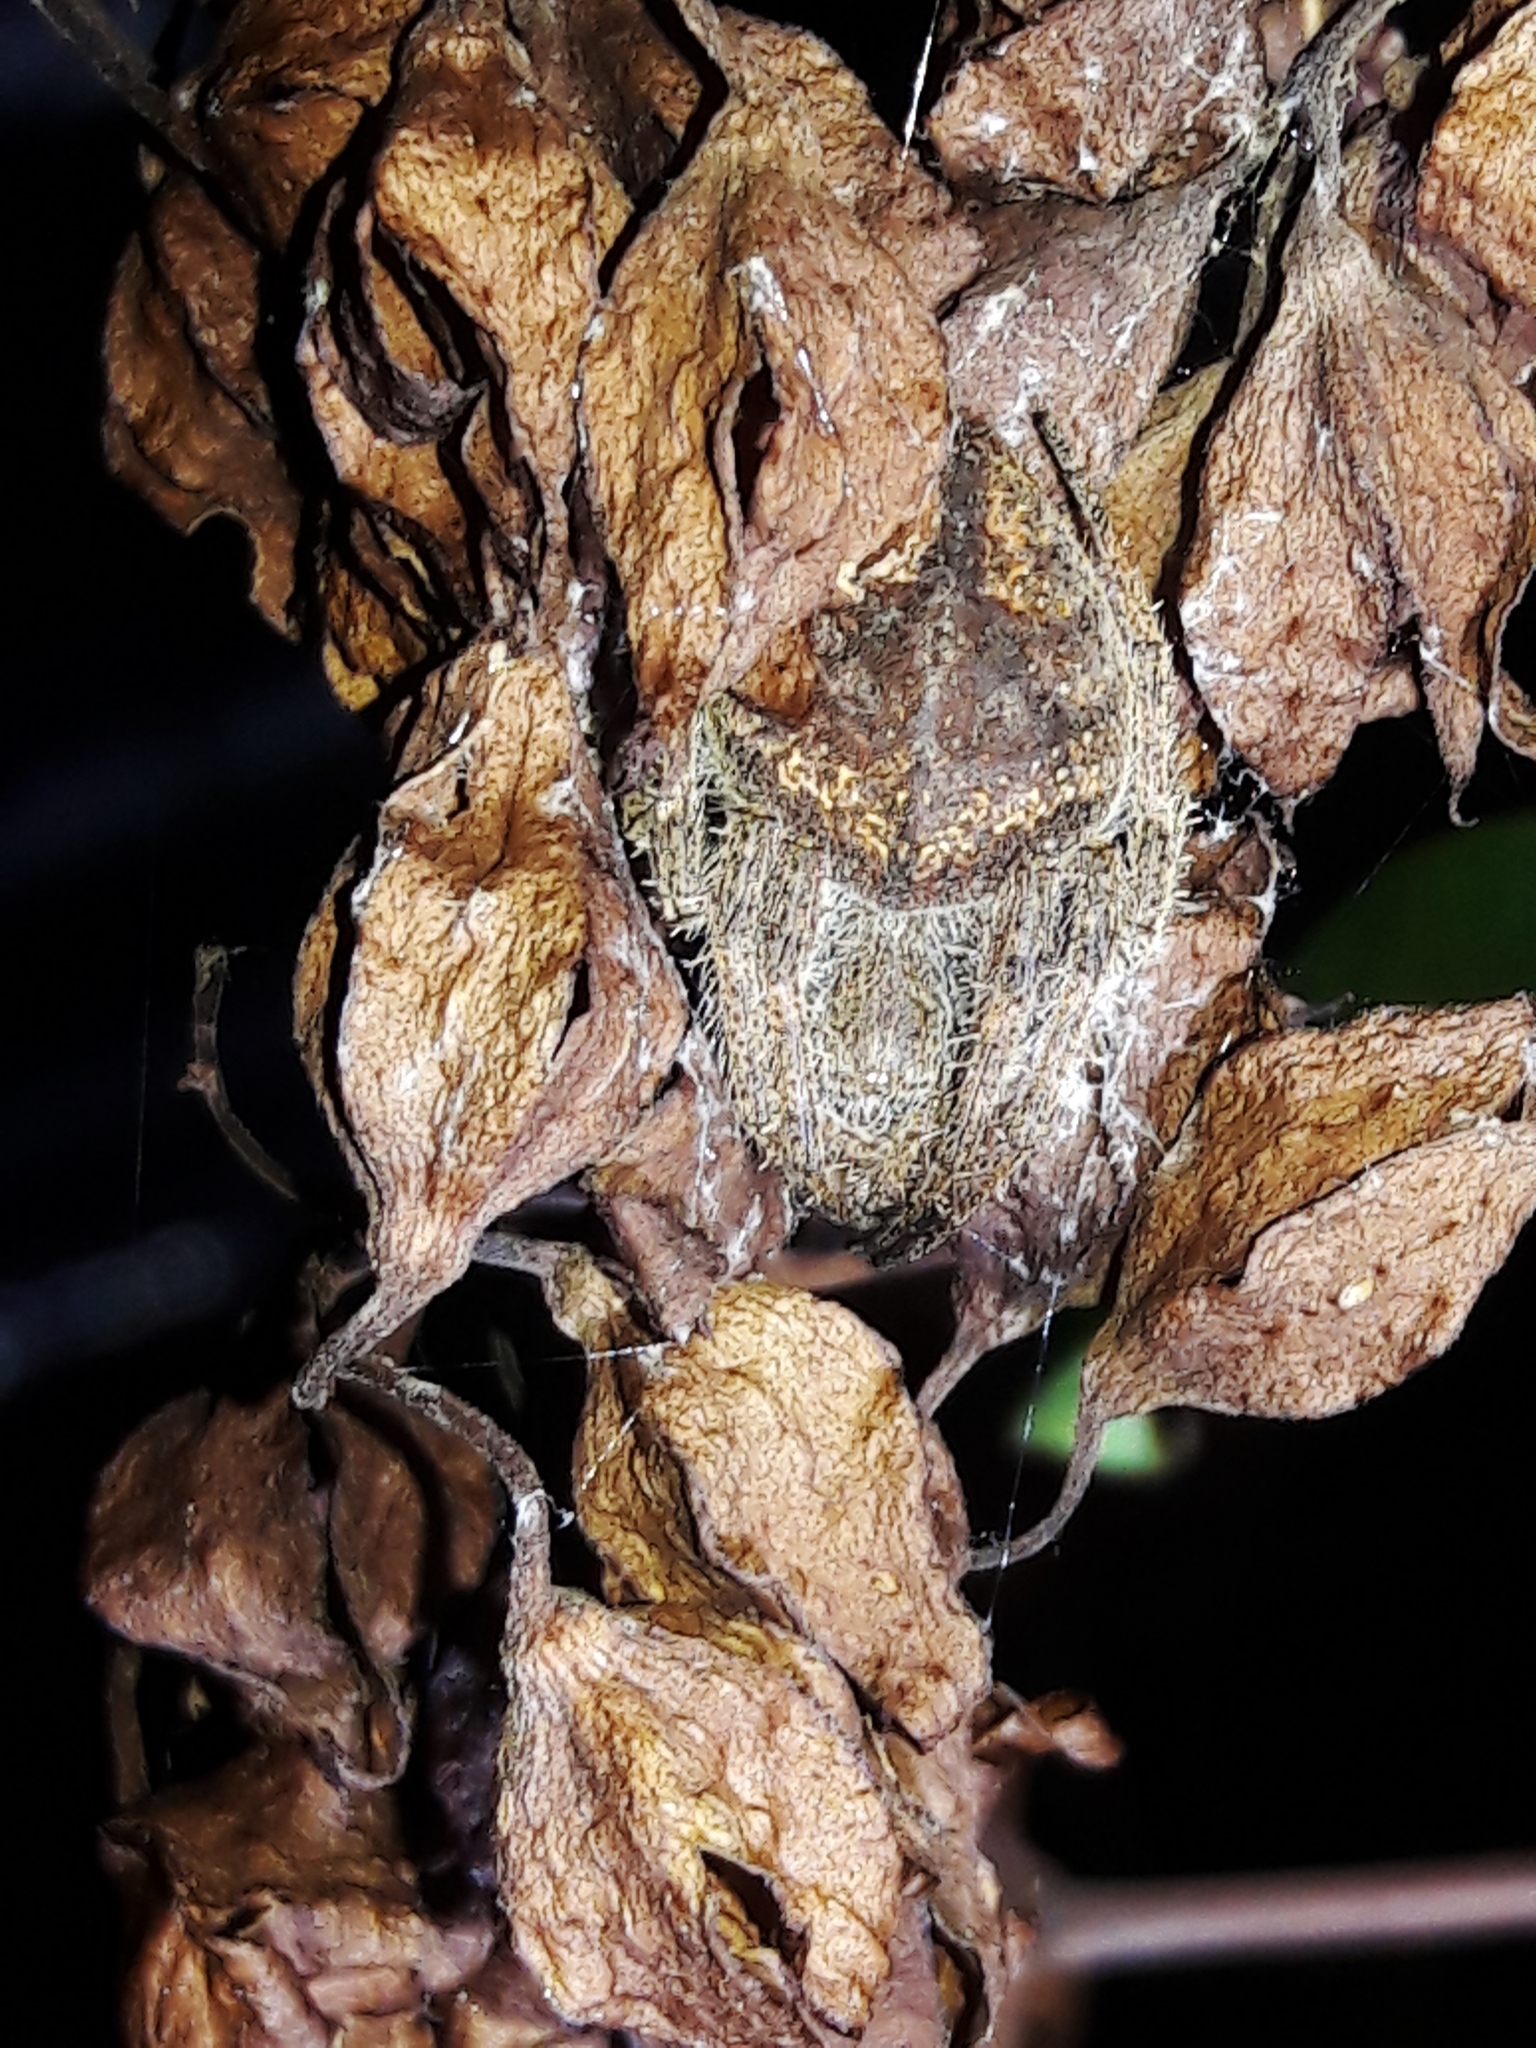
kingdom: Animalia
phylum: Arthropoda
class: Arachnida
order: Araneae
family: Araneidae
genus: Eriophora
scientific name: Eriophora edax
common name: Orb weavers
